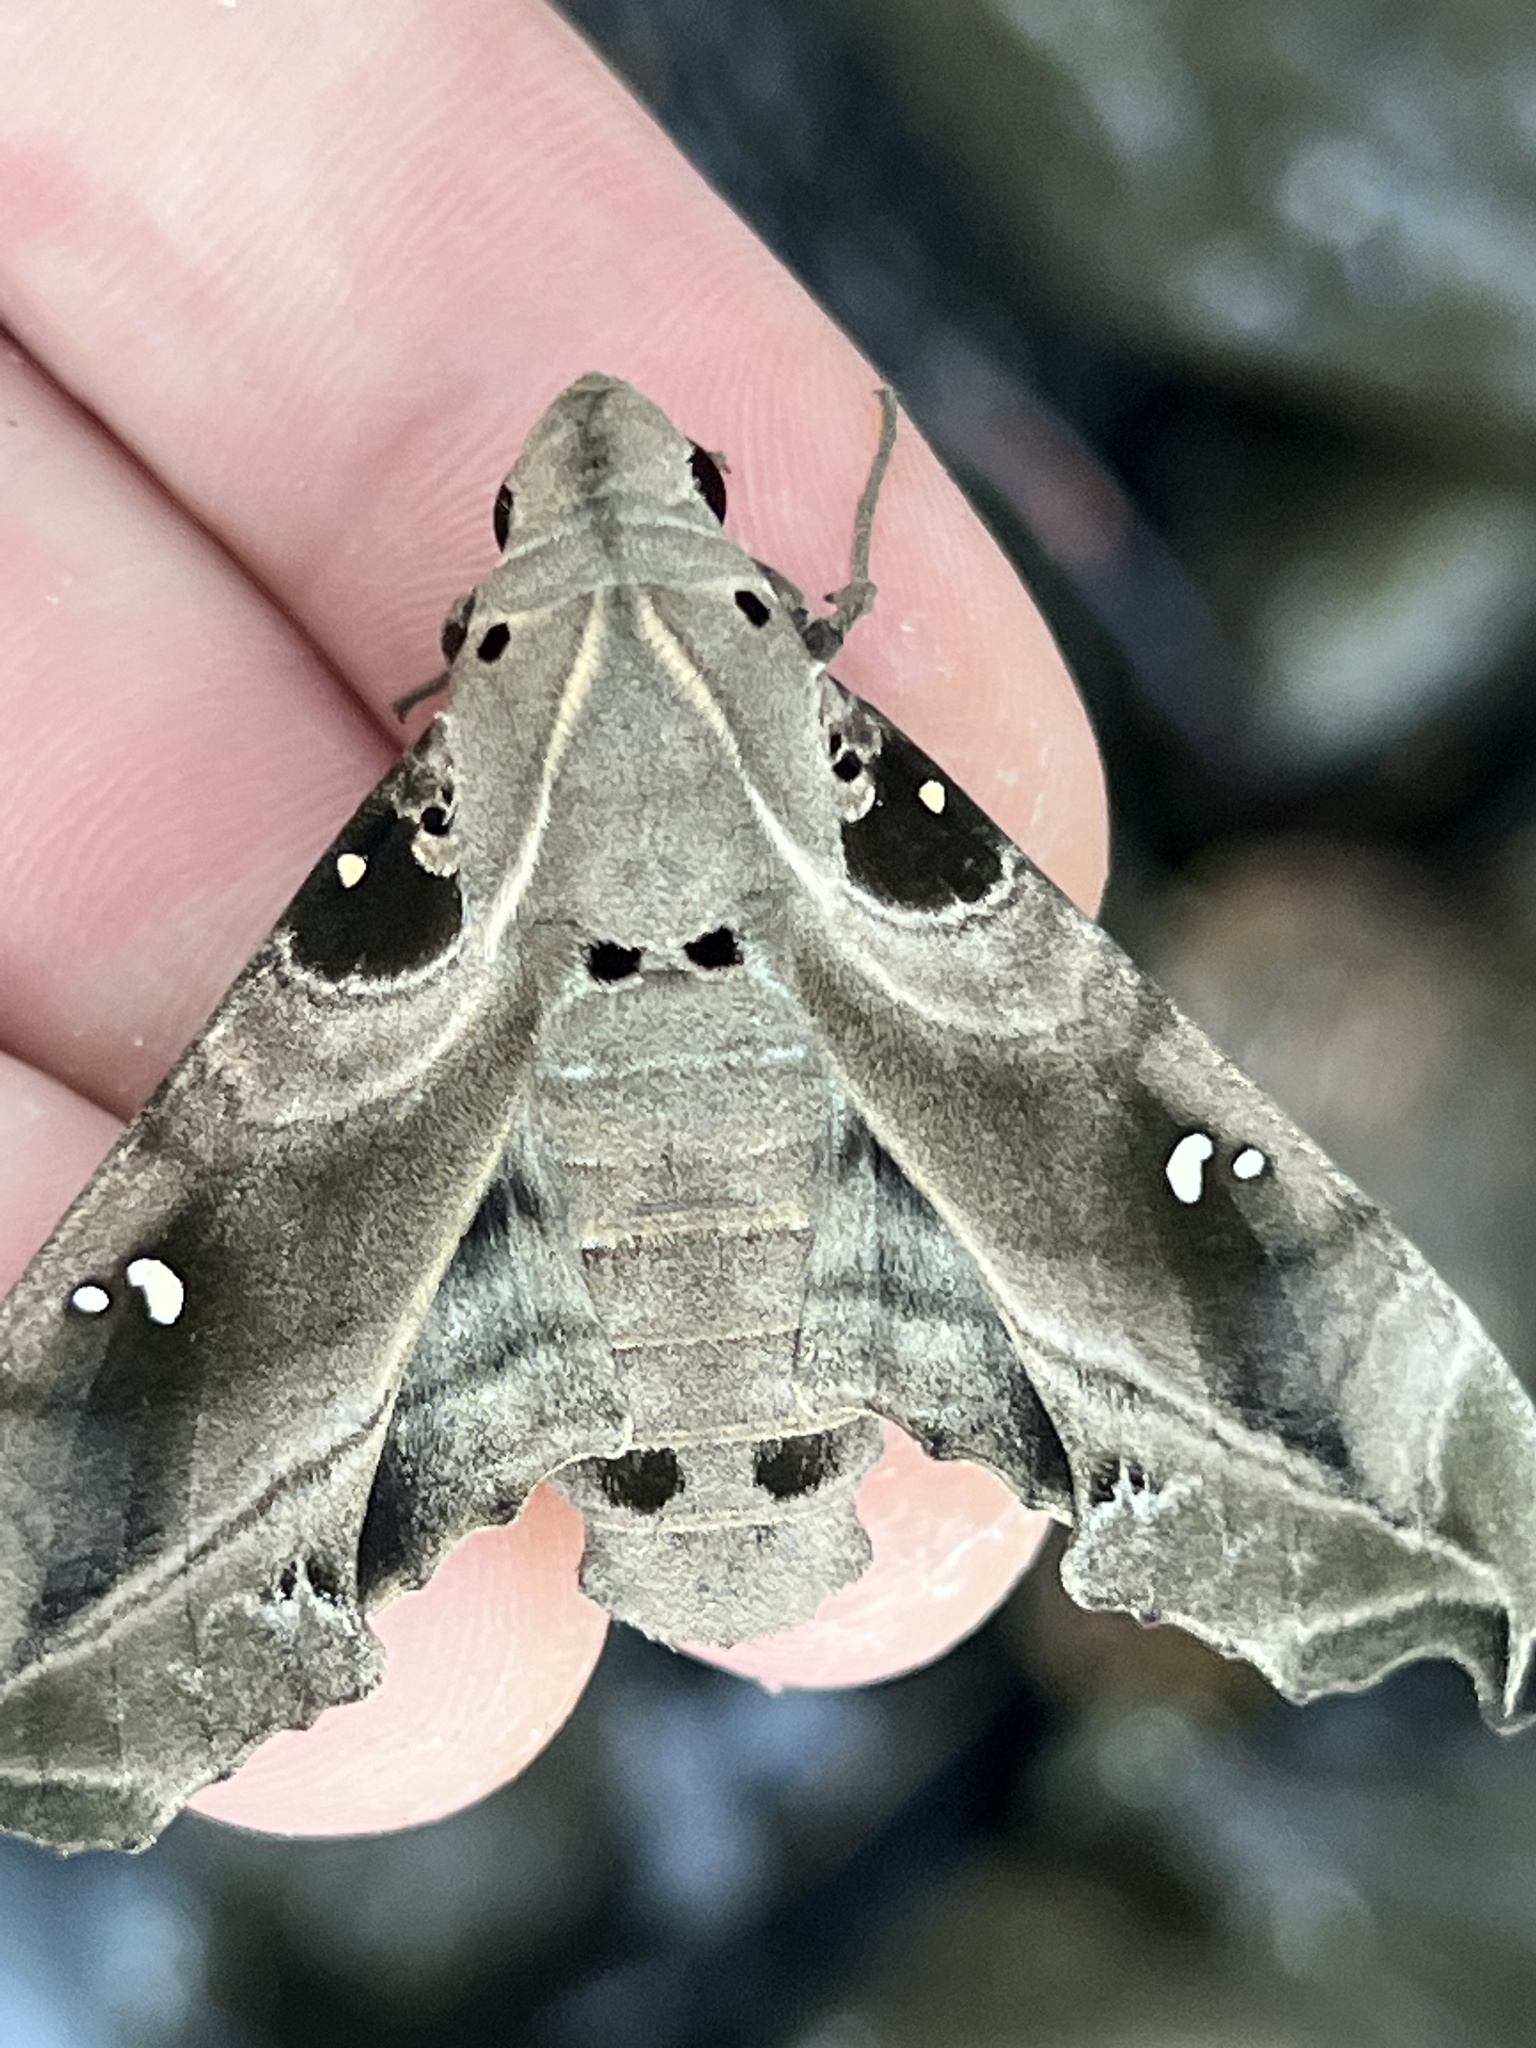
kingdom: Animalia
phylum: Arthropoda
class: Insecta
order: Lepidoptera
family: Sphingidae
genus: Madoryx
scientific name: Madoryx oiclus
